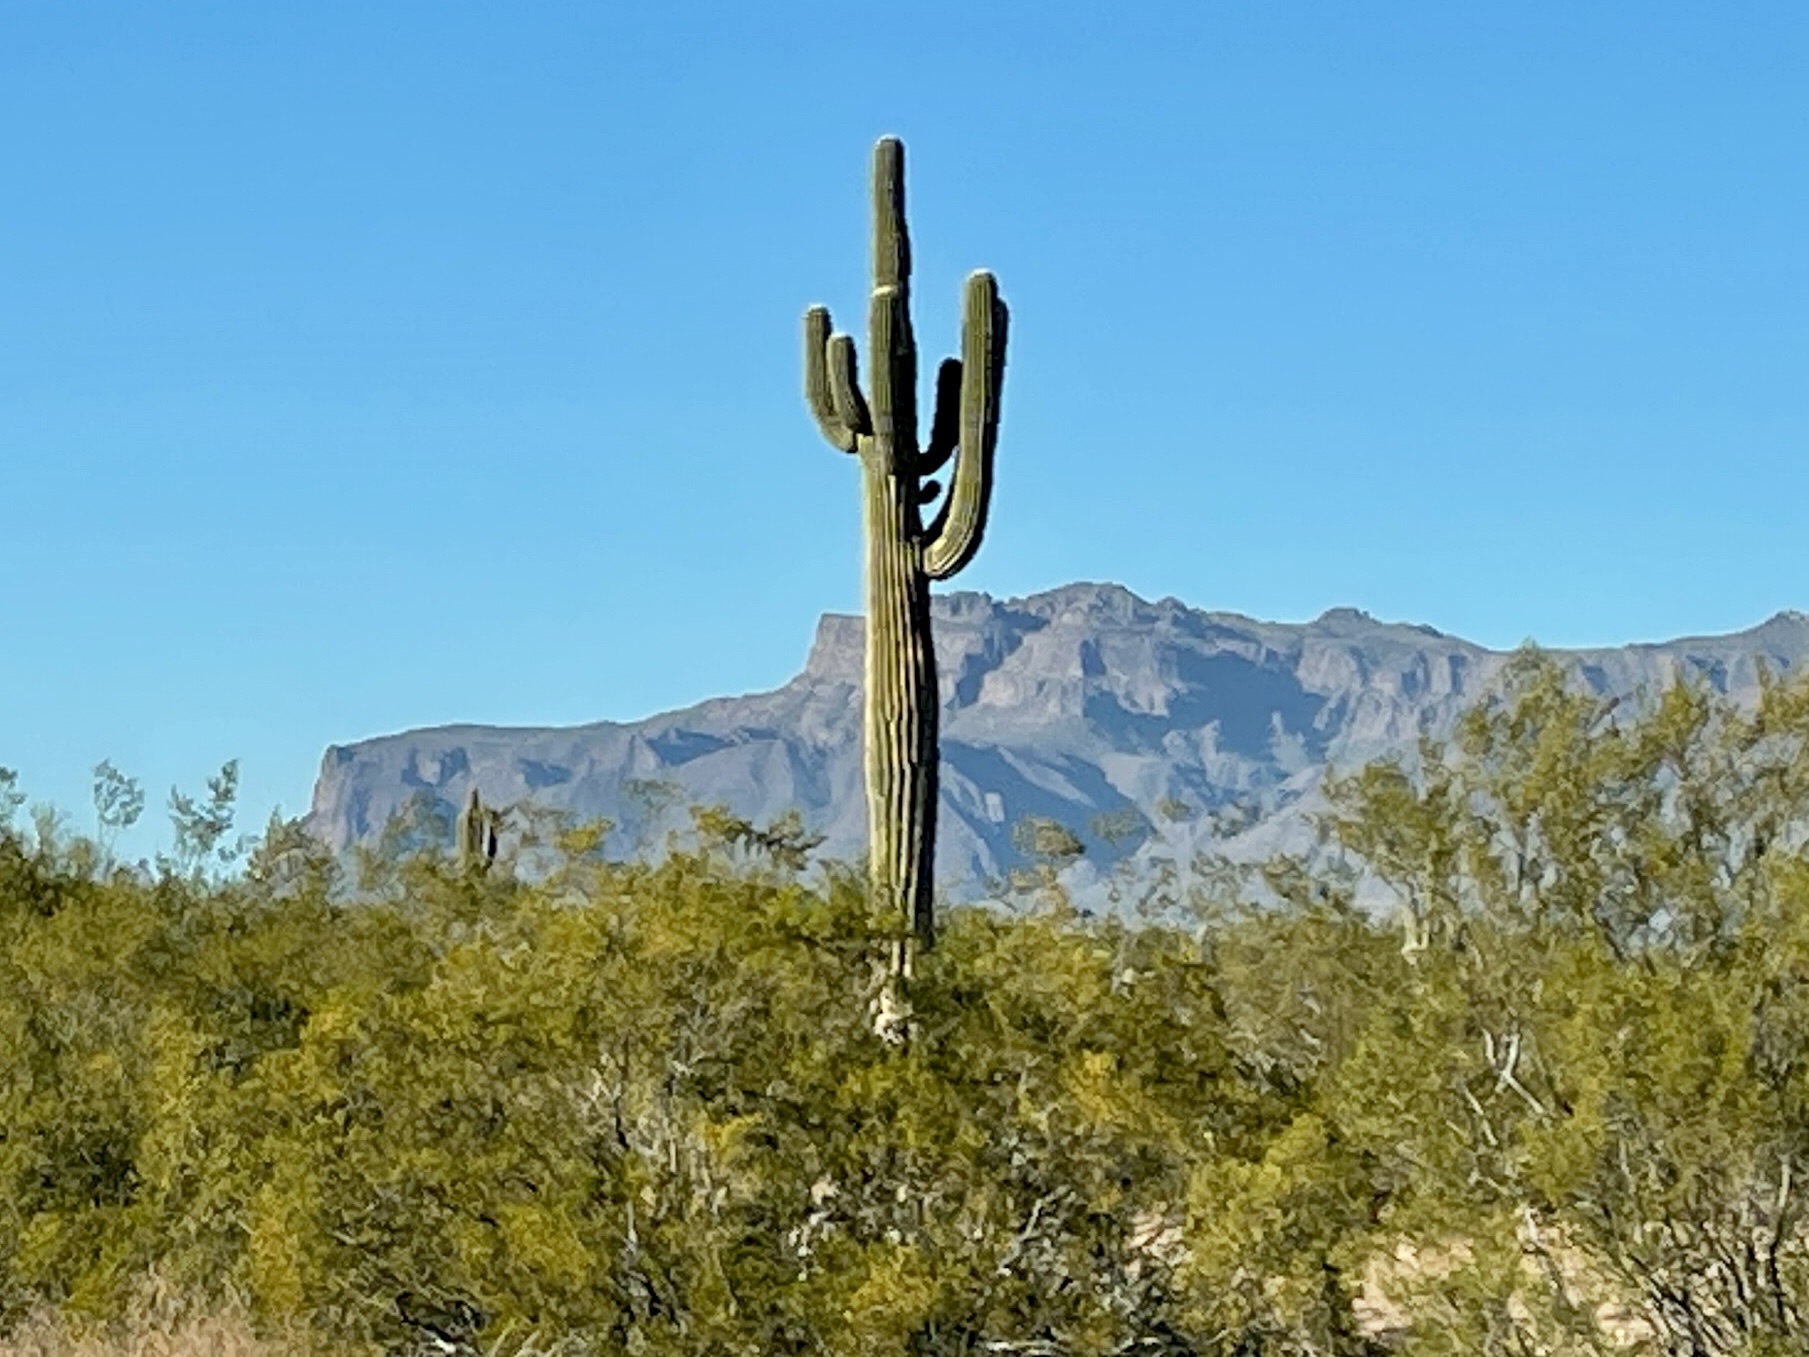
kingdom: Plantae
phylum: Tracheophyta
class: Magnoliopsida
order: Caryophyllales
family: Cactaceae
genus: Carnegiea
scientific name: Carnegiea gigantea
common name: Saguaro
